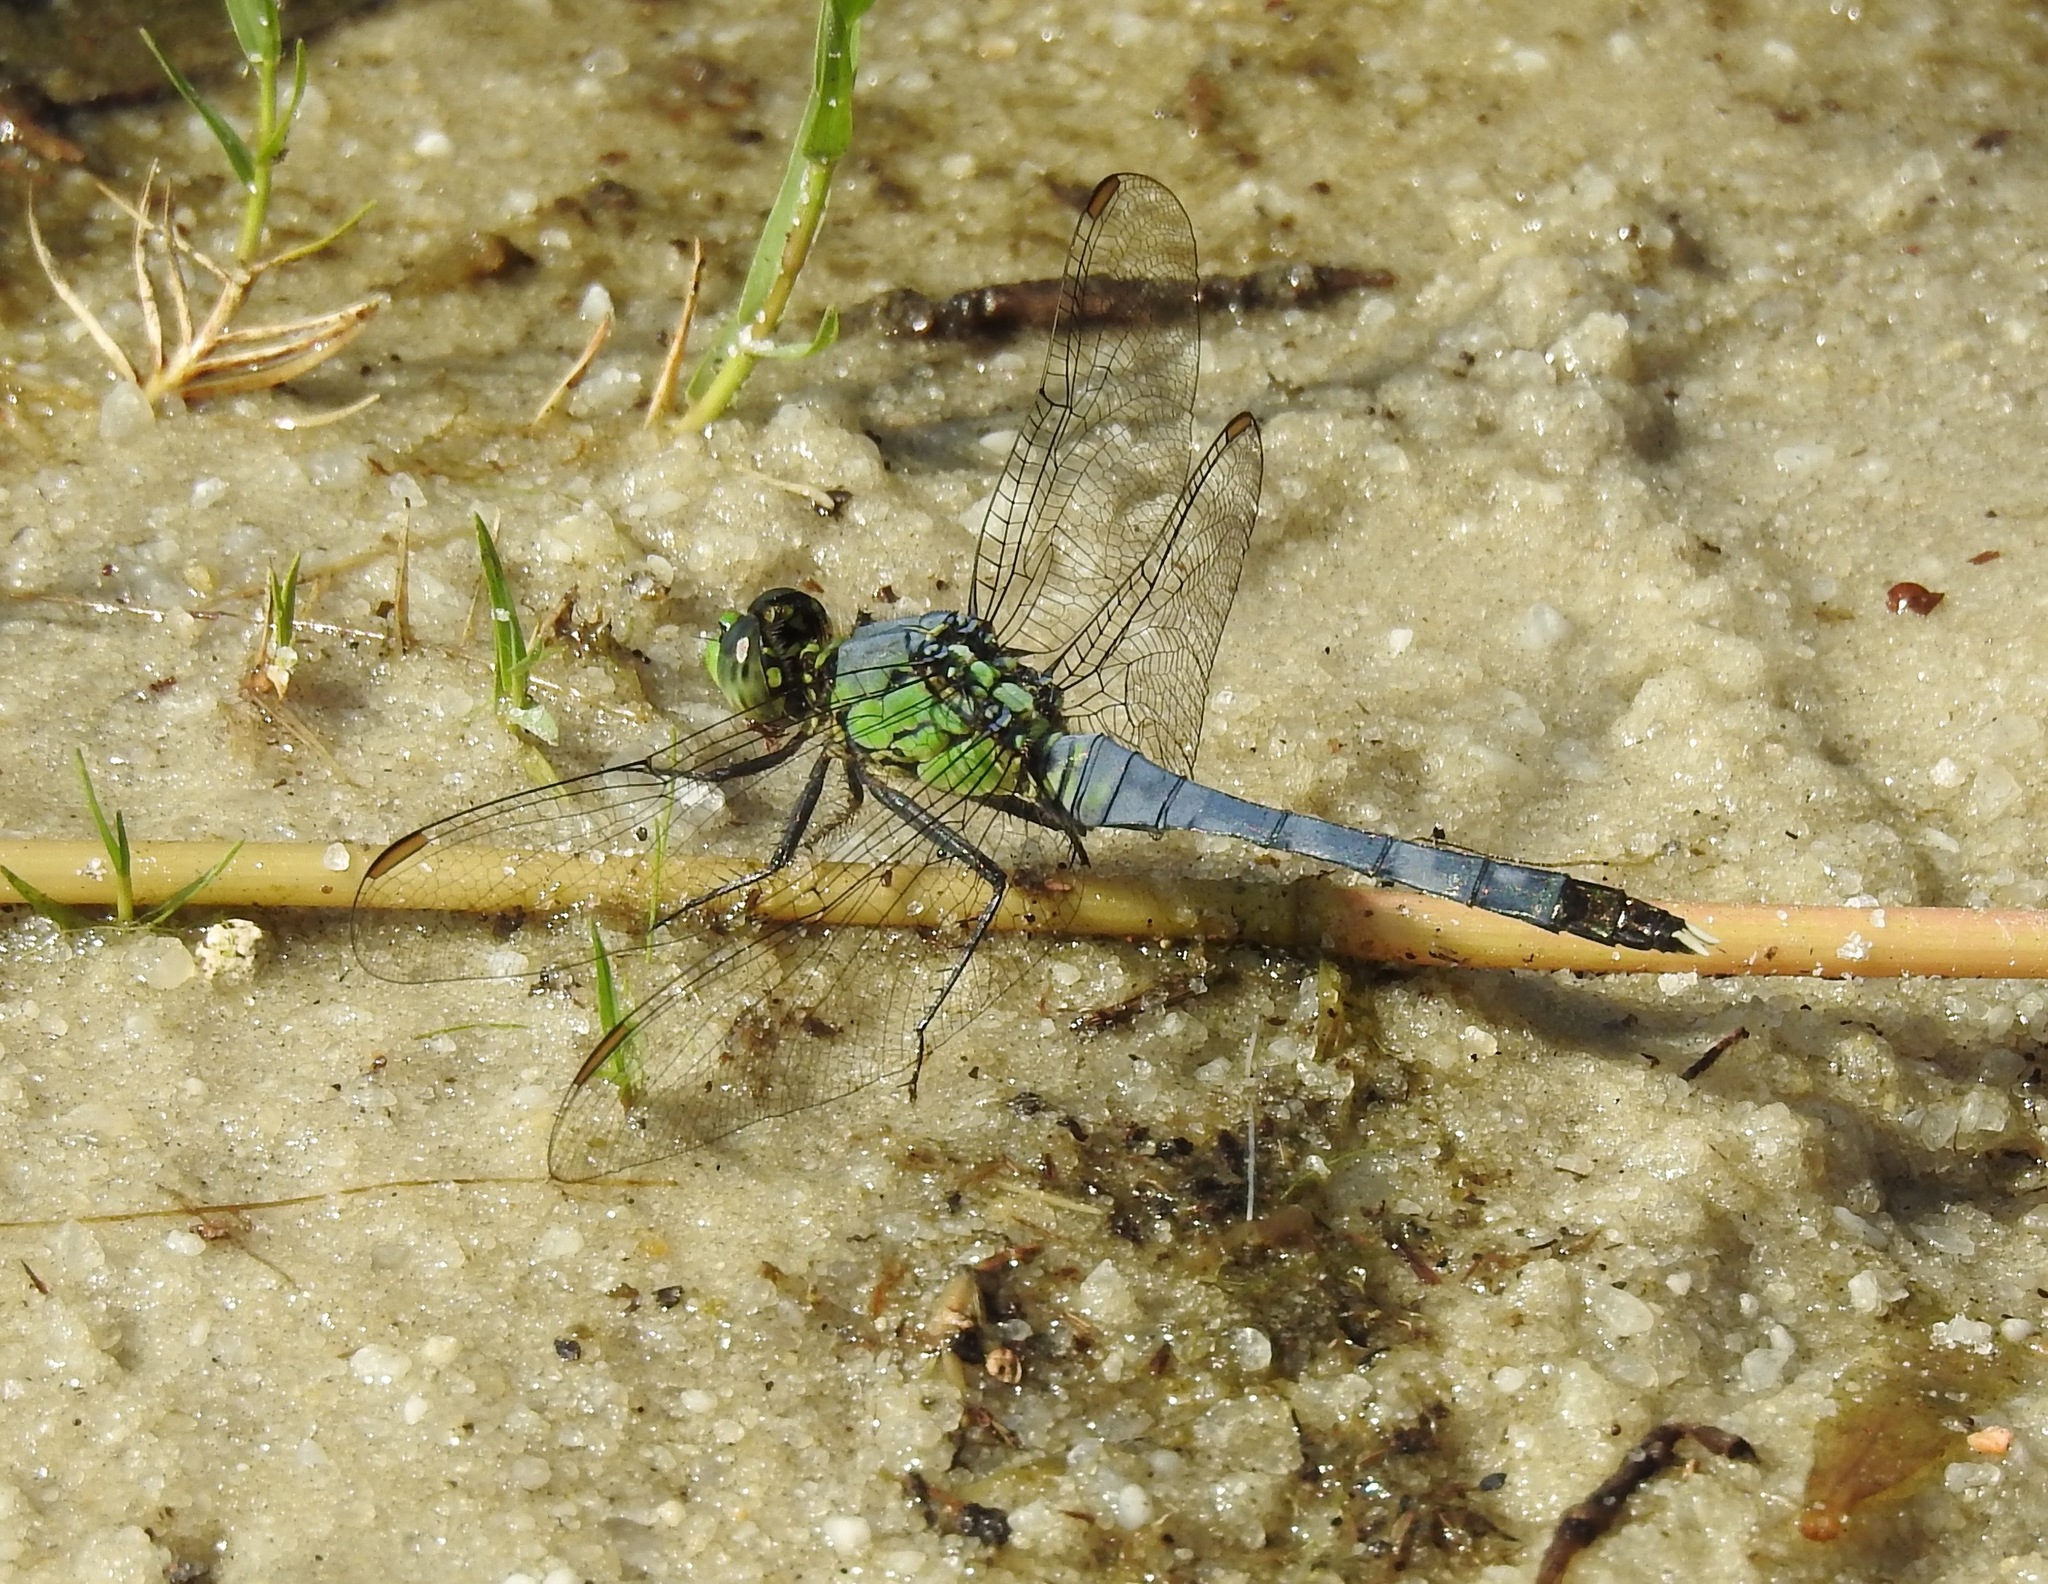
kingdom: Animalia
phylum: Arthropoda
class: Insecta
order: Odonata
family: Libellulidae
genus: Erythemis
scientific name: Erythemis simplicicollis
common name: Eastern pondhawk
